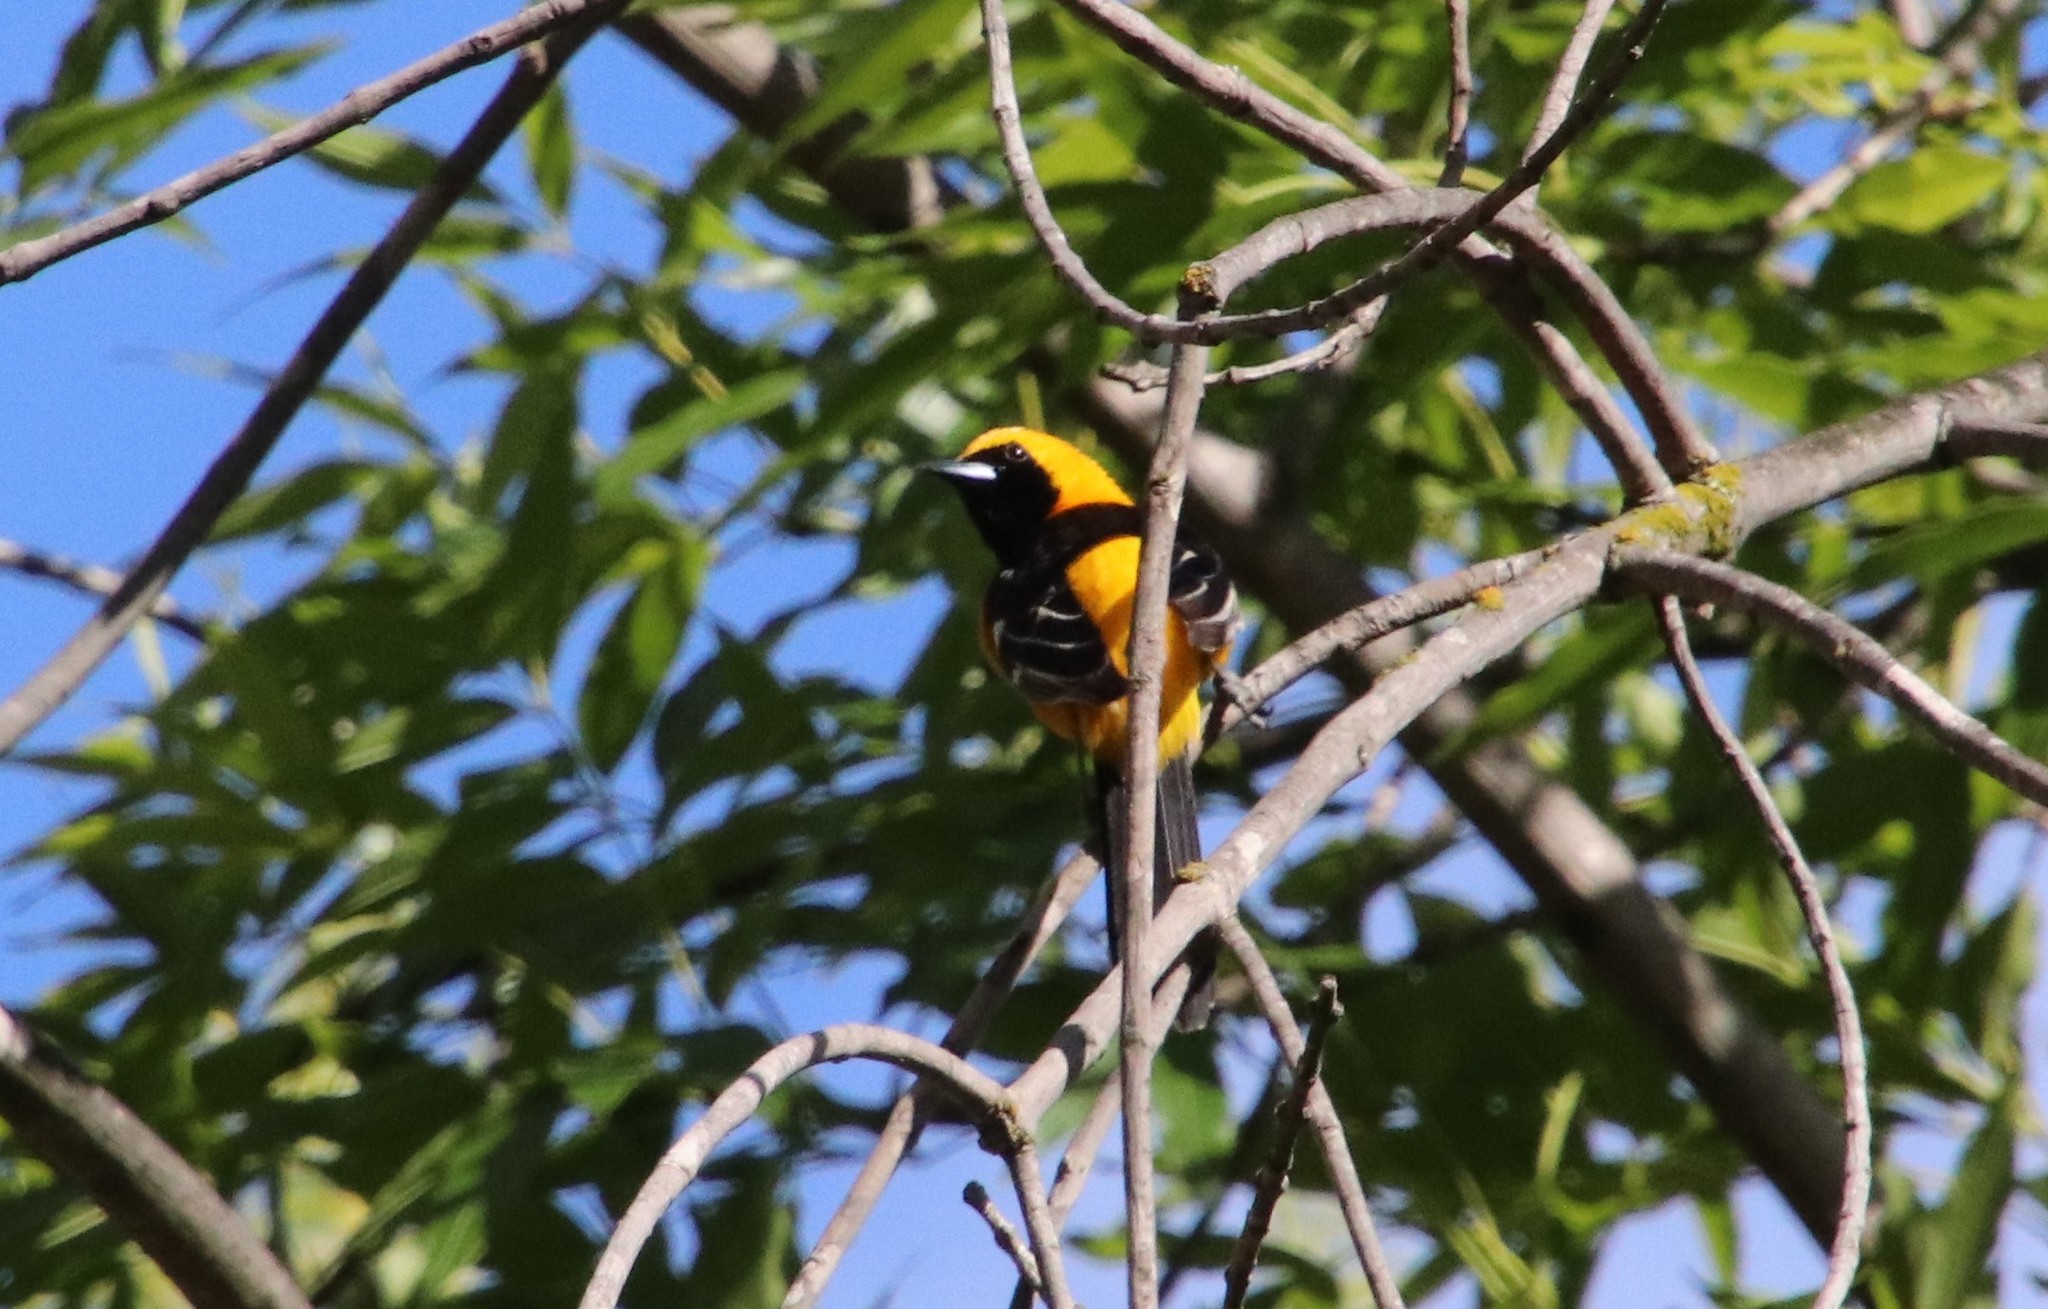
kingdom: Animalia
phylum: Chordata
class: Aves
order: Passeriformes
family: Icteridae
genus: Icterus
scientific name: Icterus cucullatus
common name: Hooded oriole
